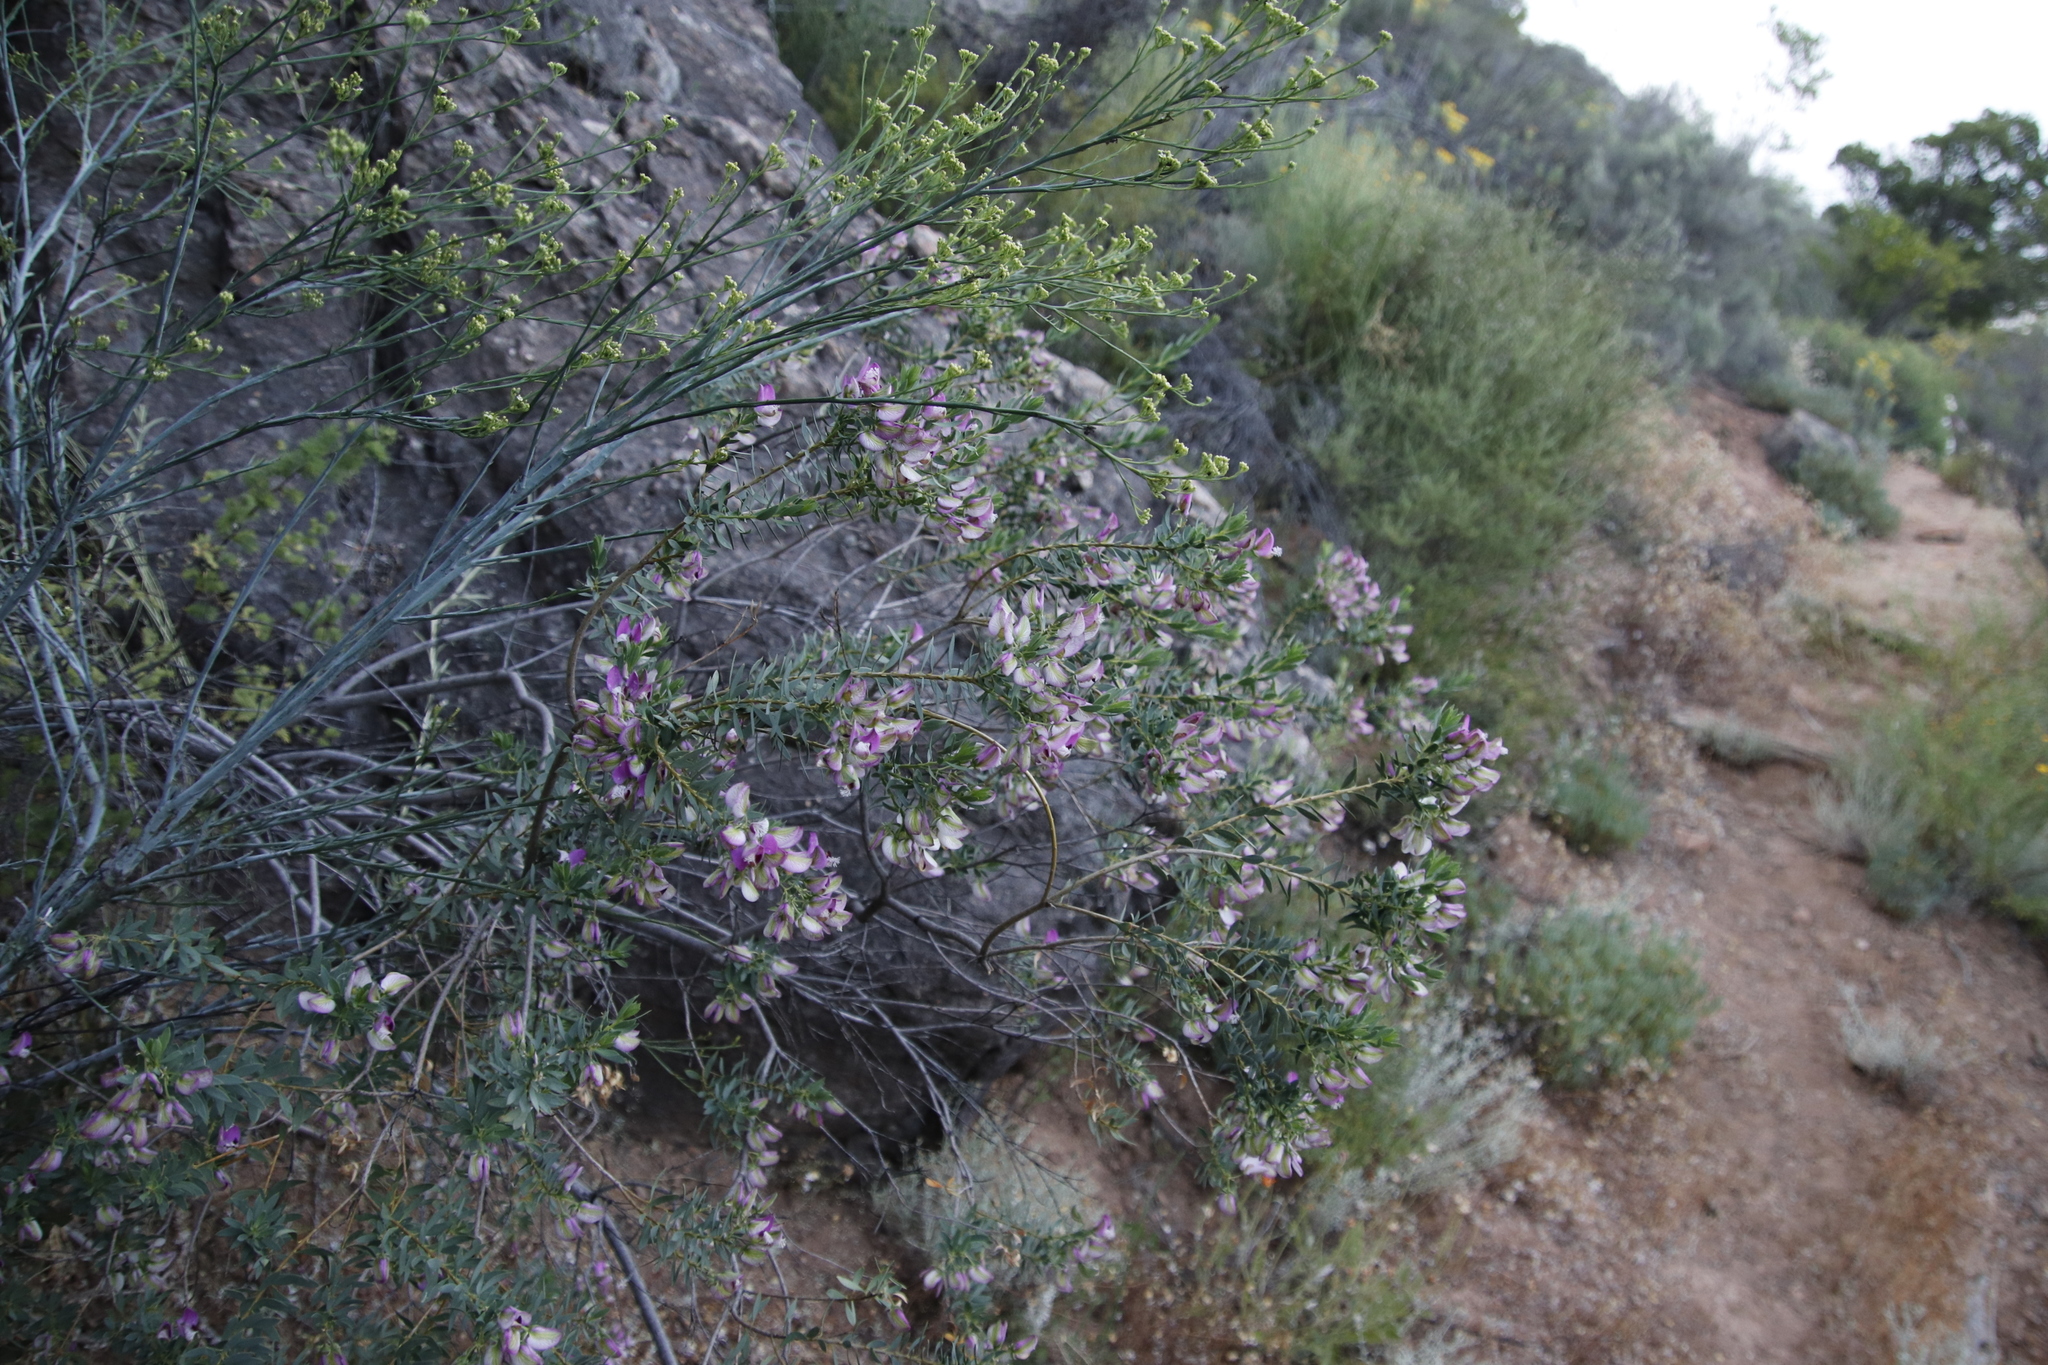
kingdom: Plantae
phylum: Tracheophyta
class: Magnoliopsida
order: Fabales
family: Polygalaceae
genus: Polygala
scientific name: Polygala myrtifolia
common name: Myrtle-leaf milkwort
